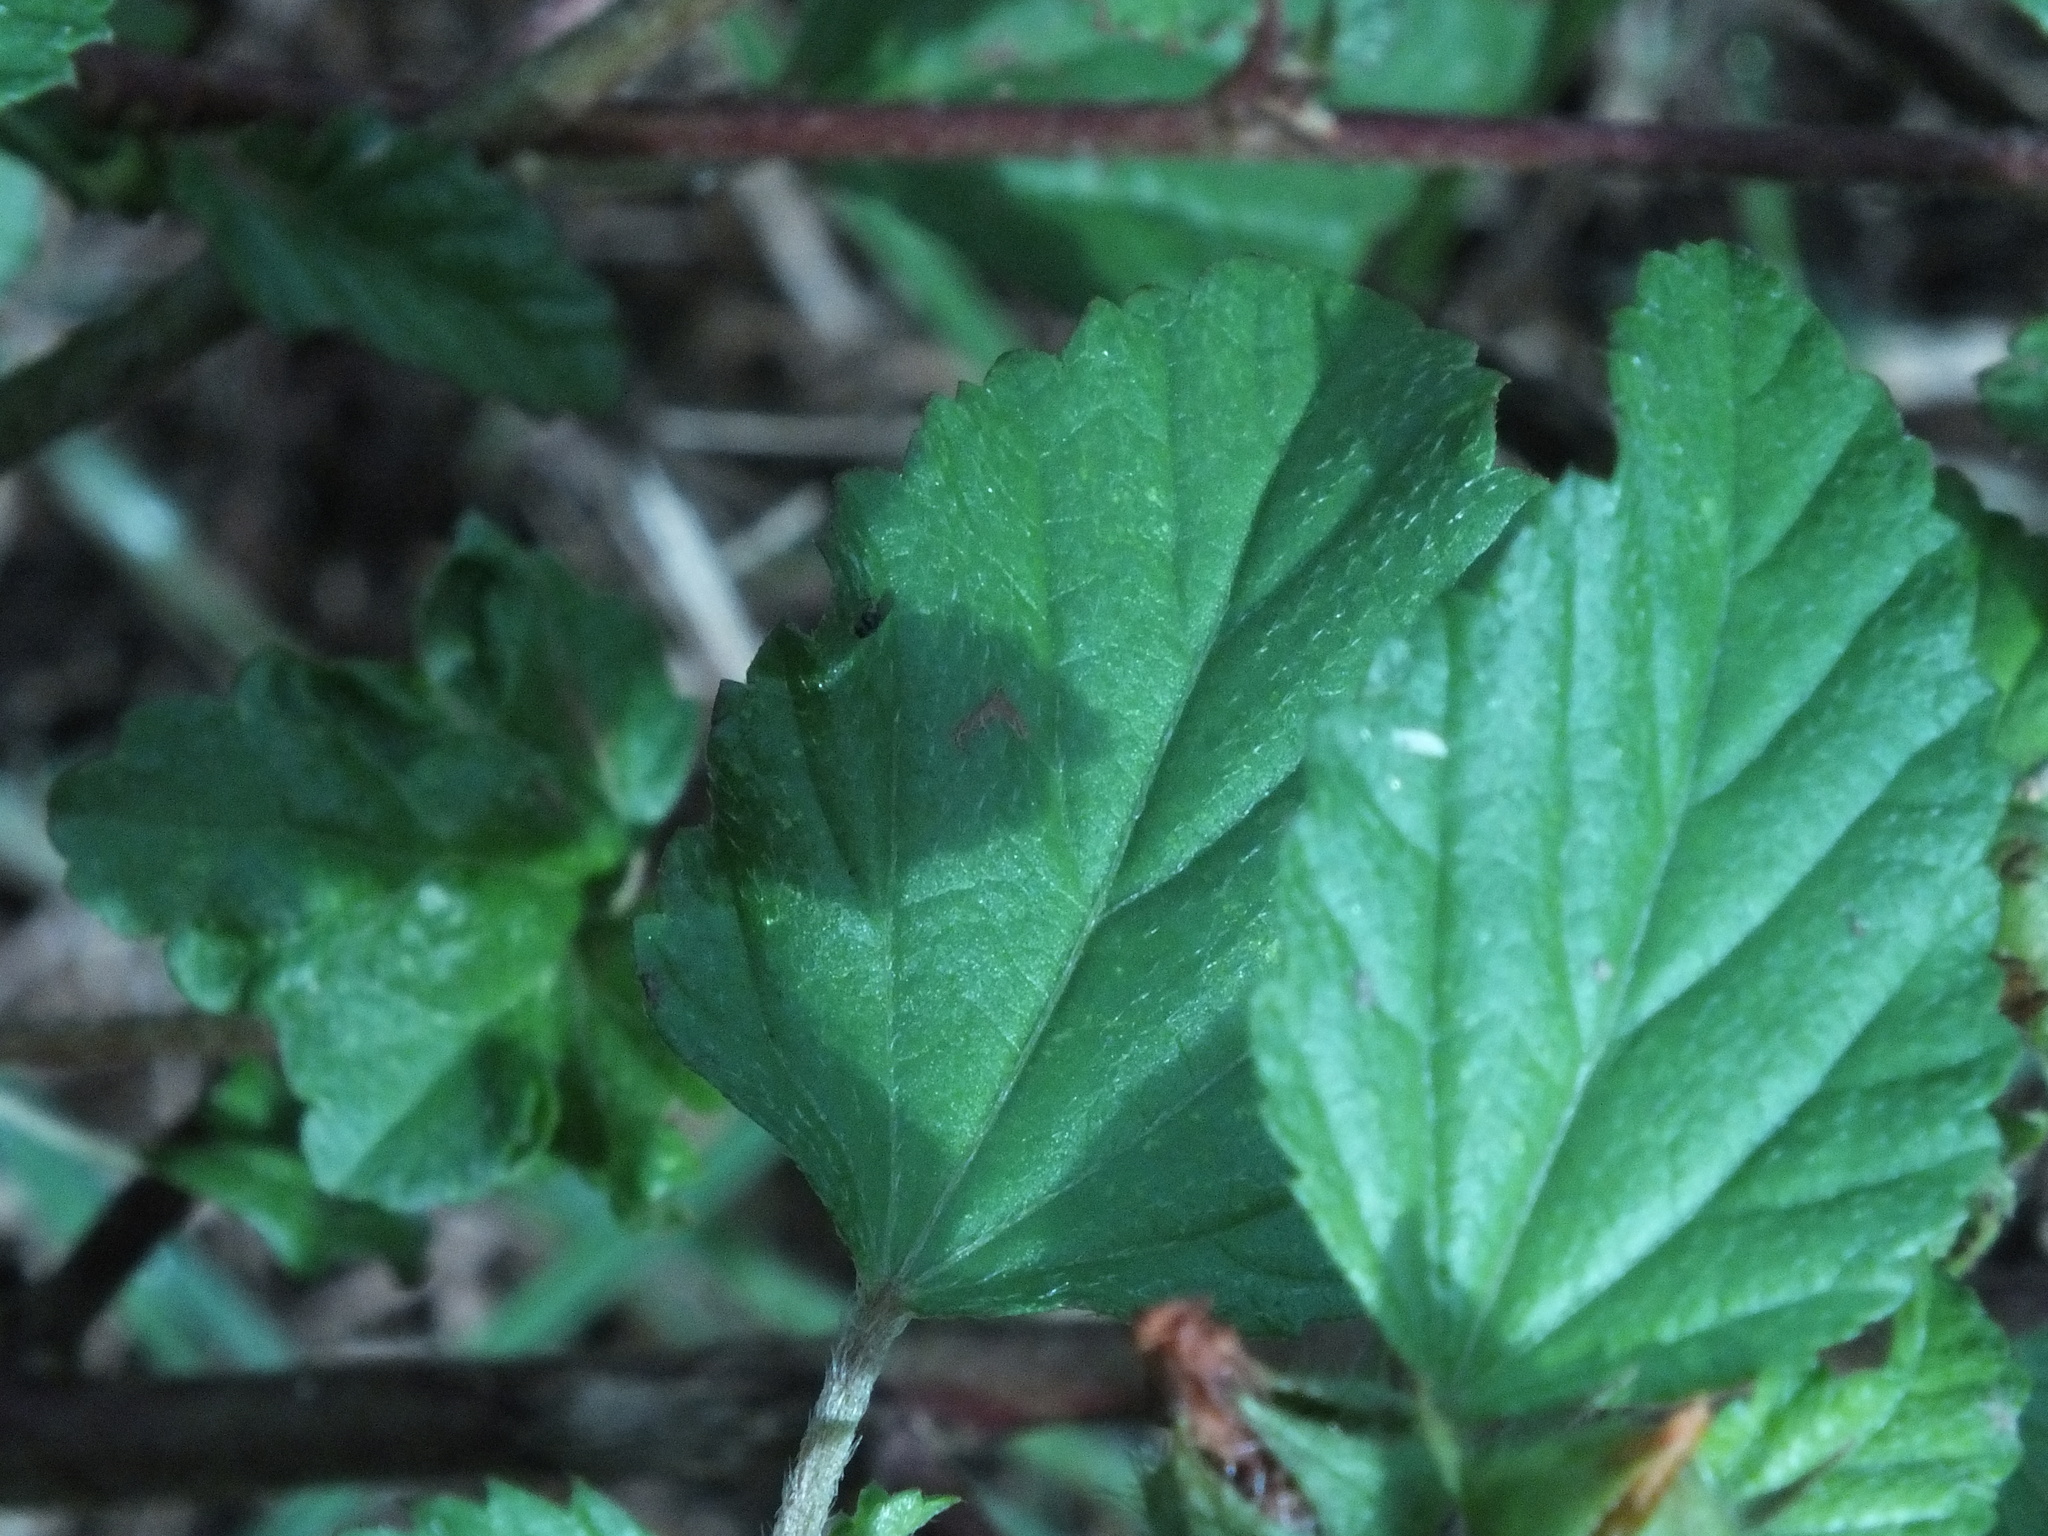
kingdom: Plantae
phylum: Tracheophyta
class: Magnoliopsida
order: Malvales
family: Malvaceae
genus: Malvastrum
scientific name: Malvastrum coromandelianum
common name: Threelobe false mallow
